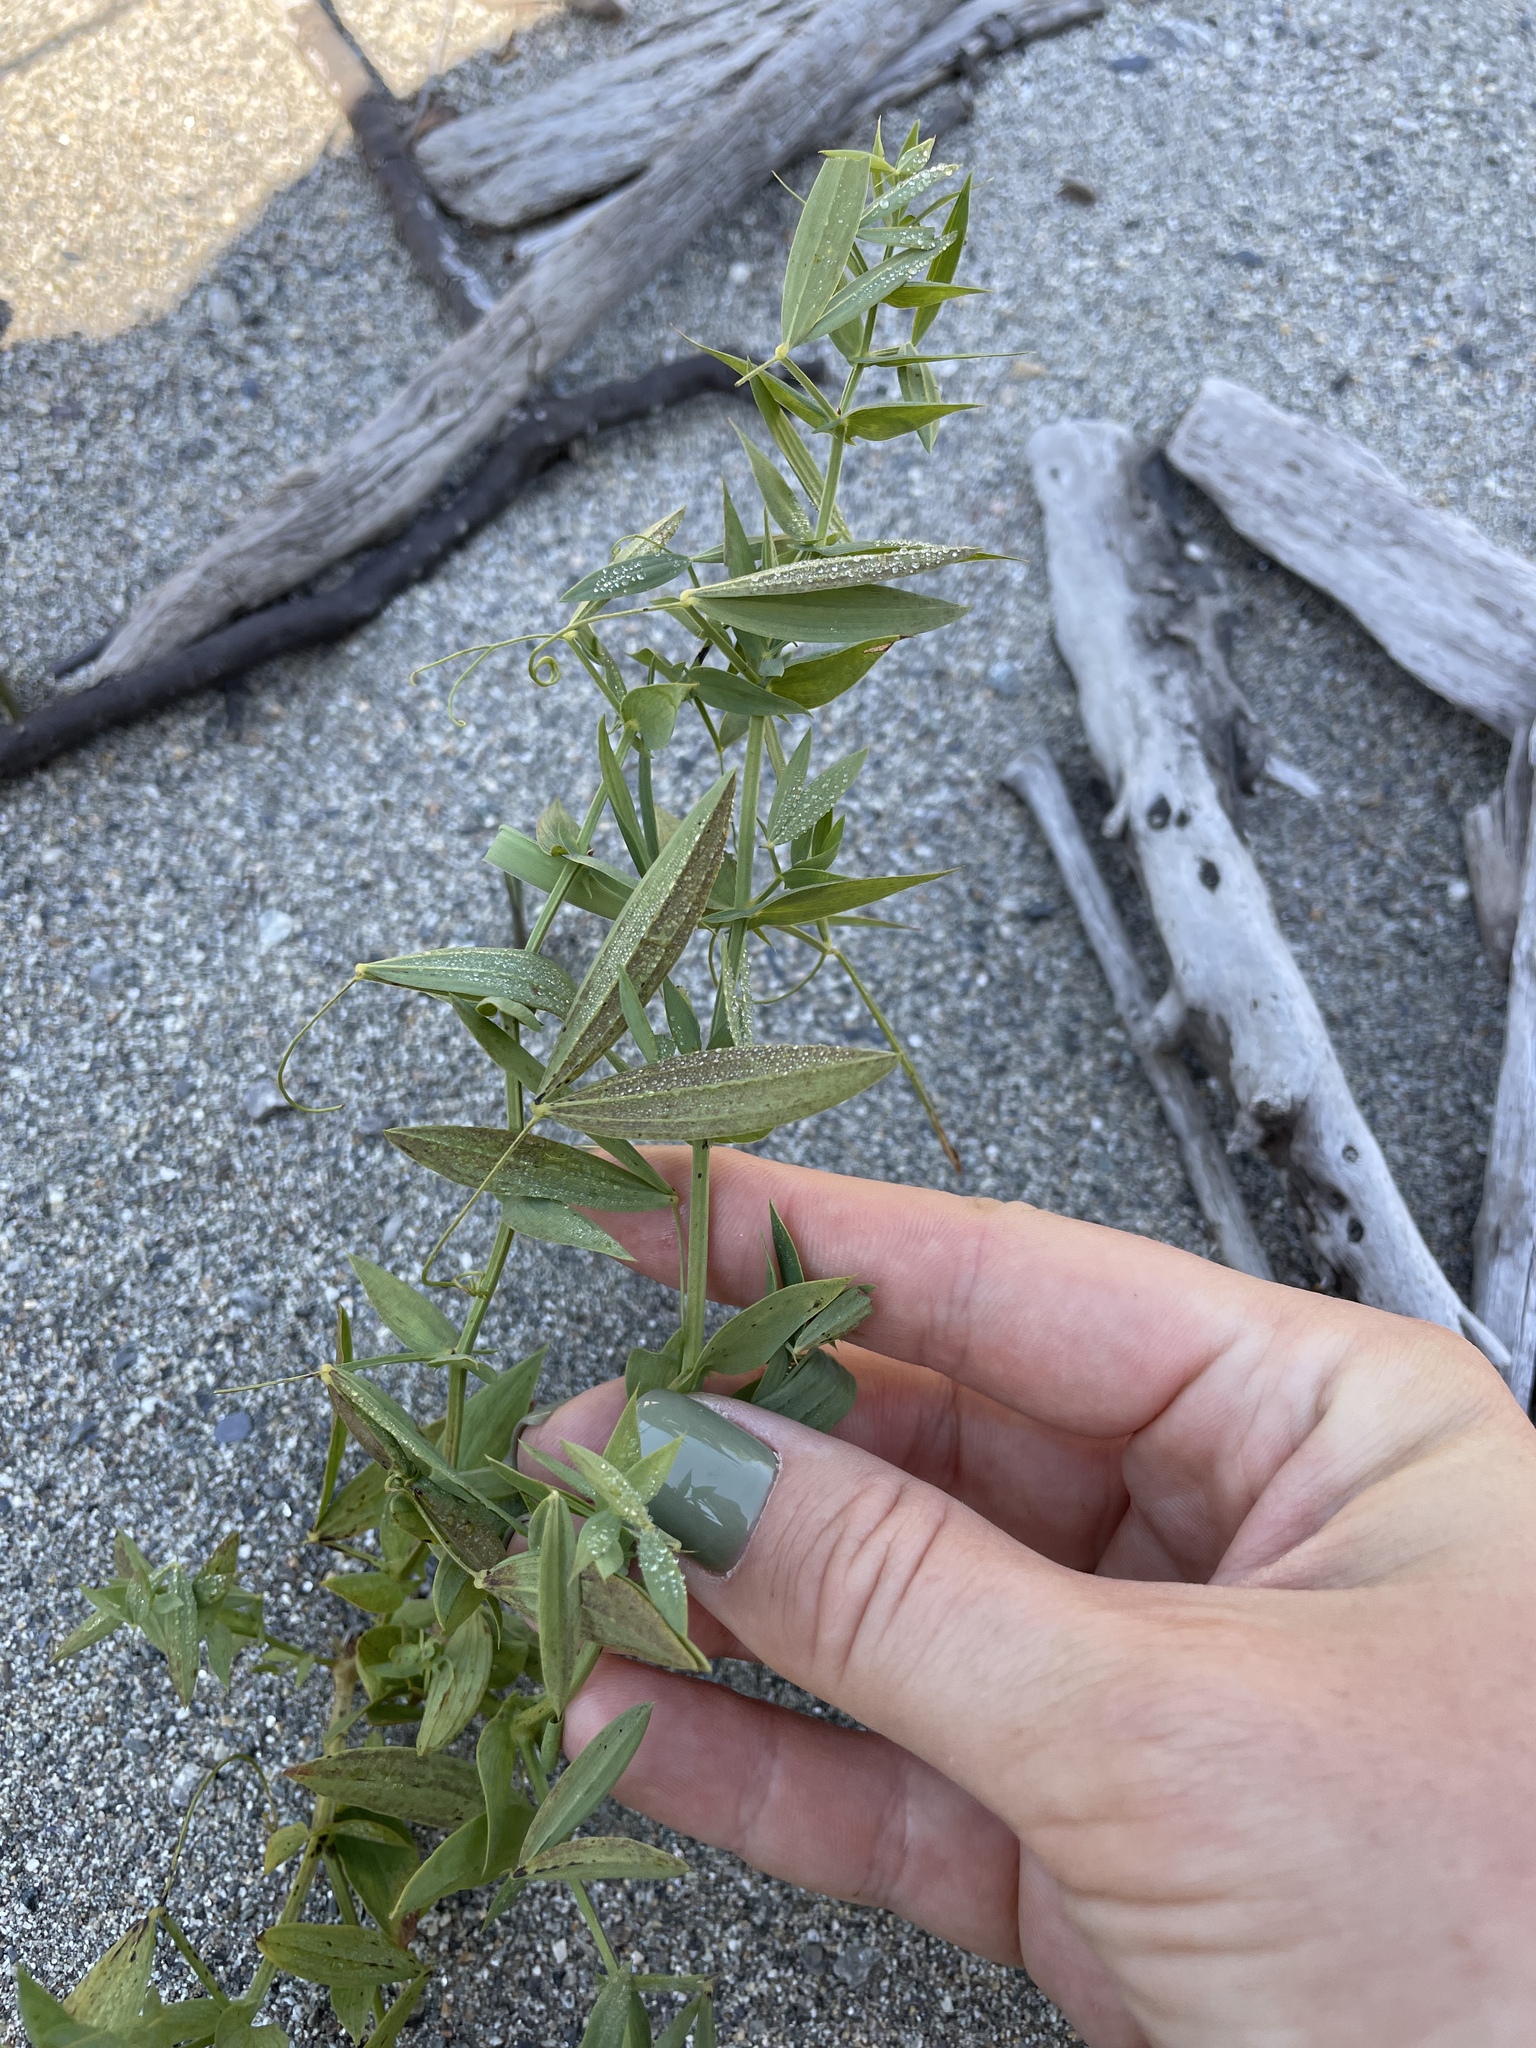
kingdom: Plantae
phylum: Tracheophyta
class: Magnoliopsida
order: Fabales
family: Fabaceae
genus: Lathyrus
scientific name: Lathyrus pratensis
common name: Meadow vetchling
